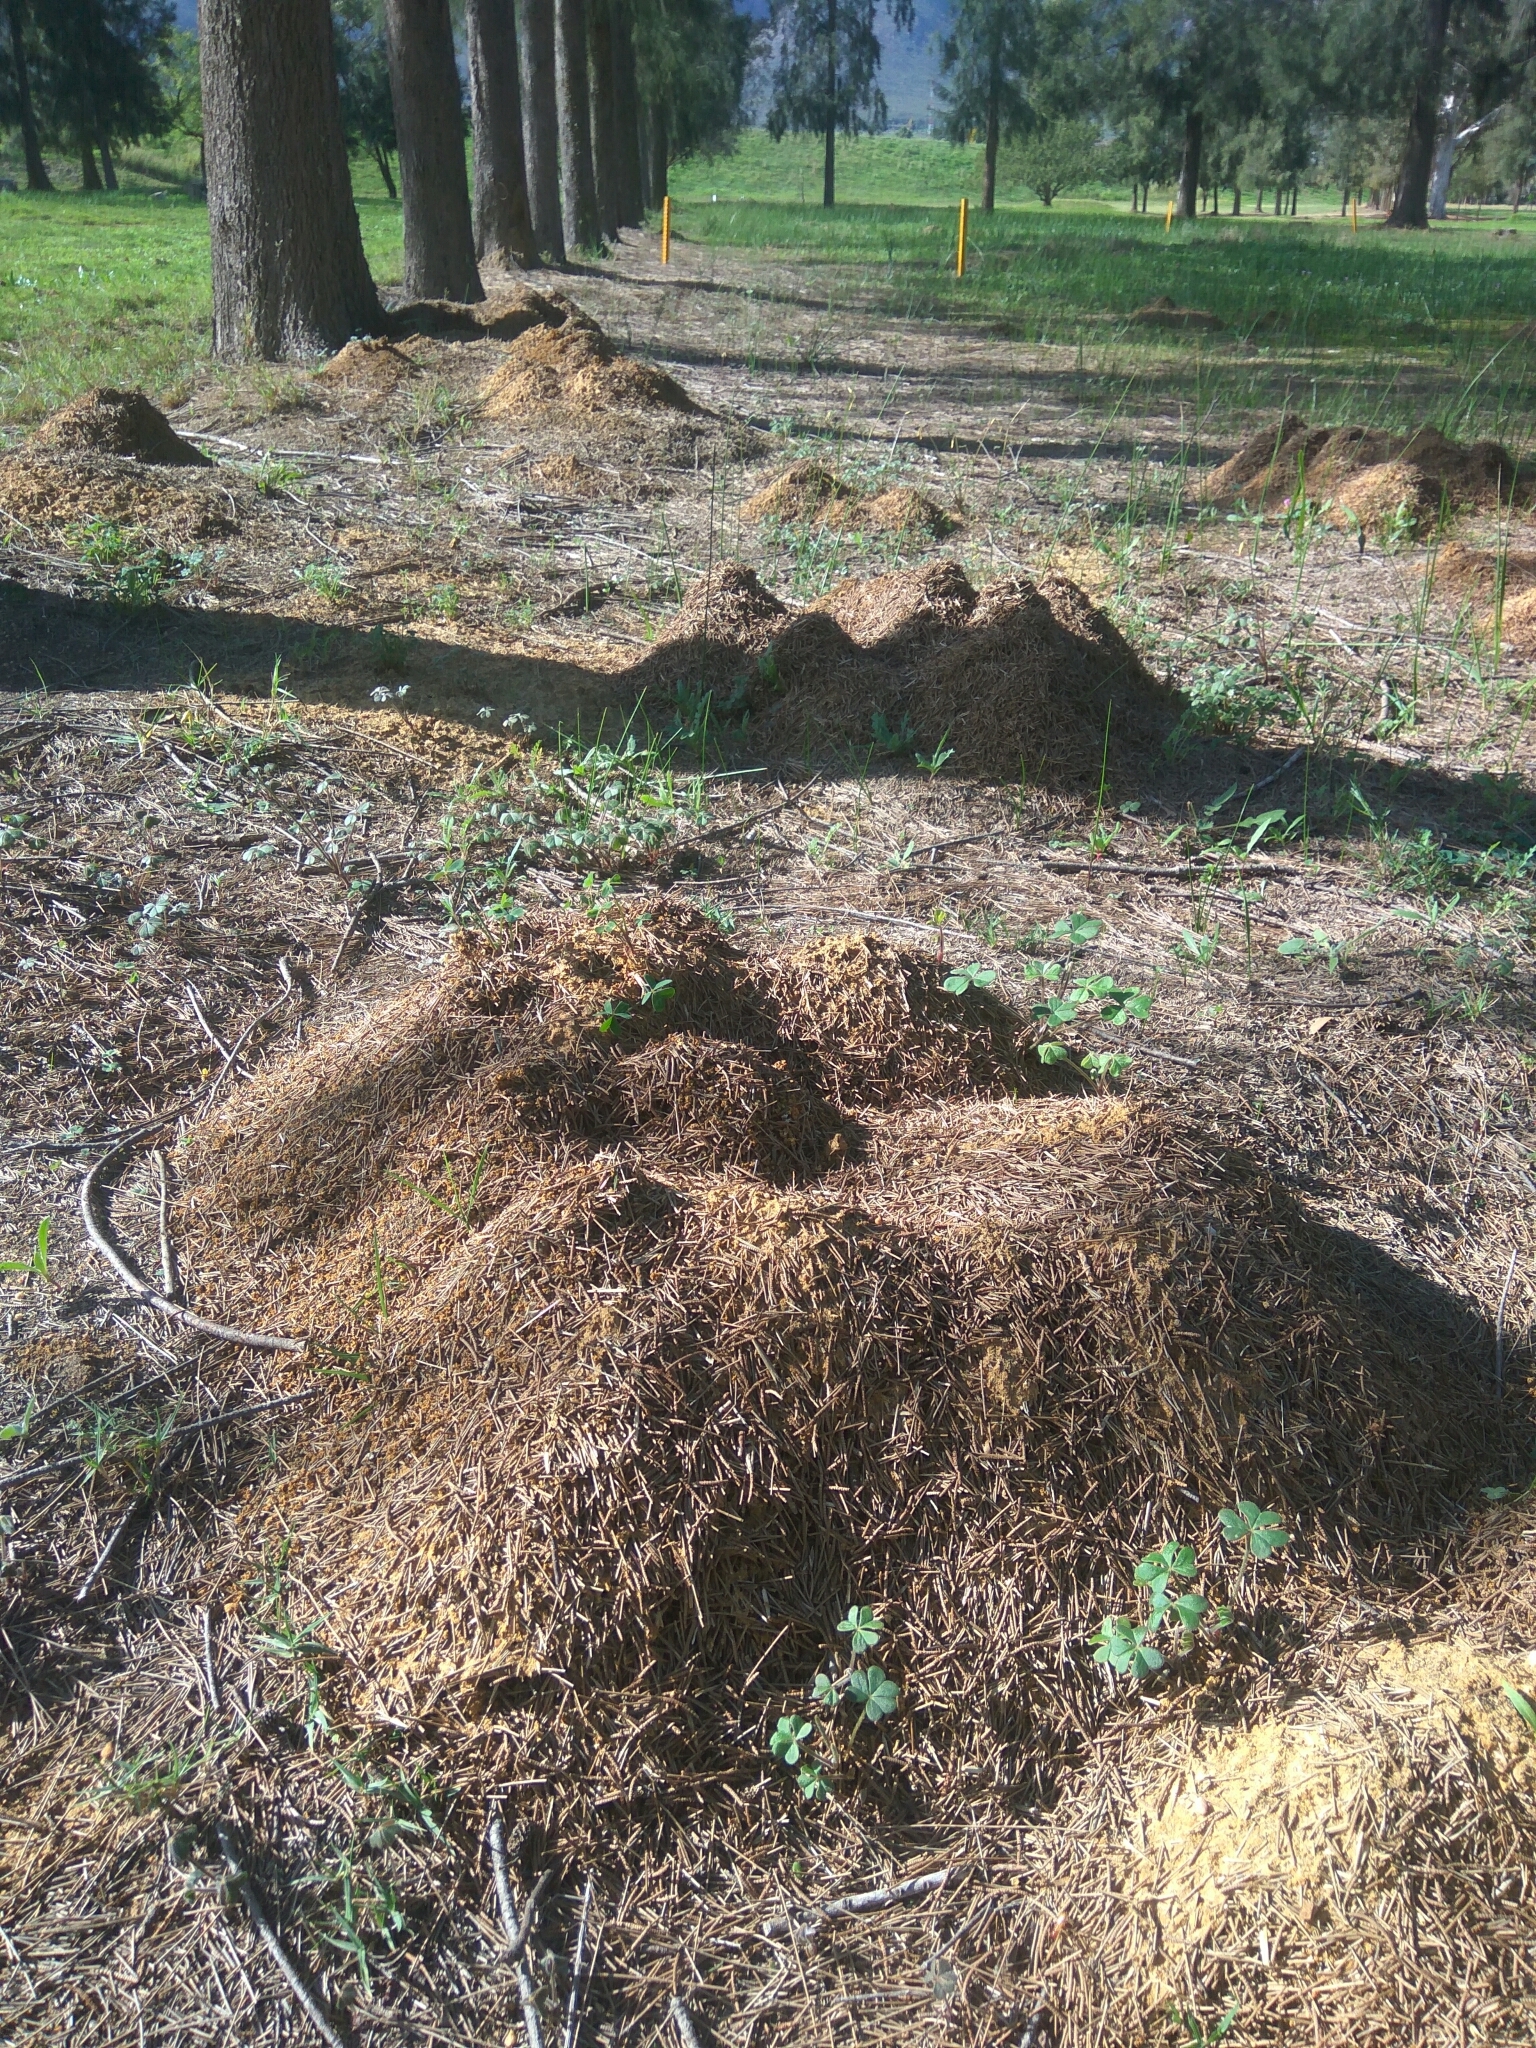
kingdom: Animalia
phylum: Arthropoda
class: Insecta
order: Blattodea
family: Hodotermitidae
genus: Microhodotermes
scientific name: Microhodotermes viator
